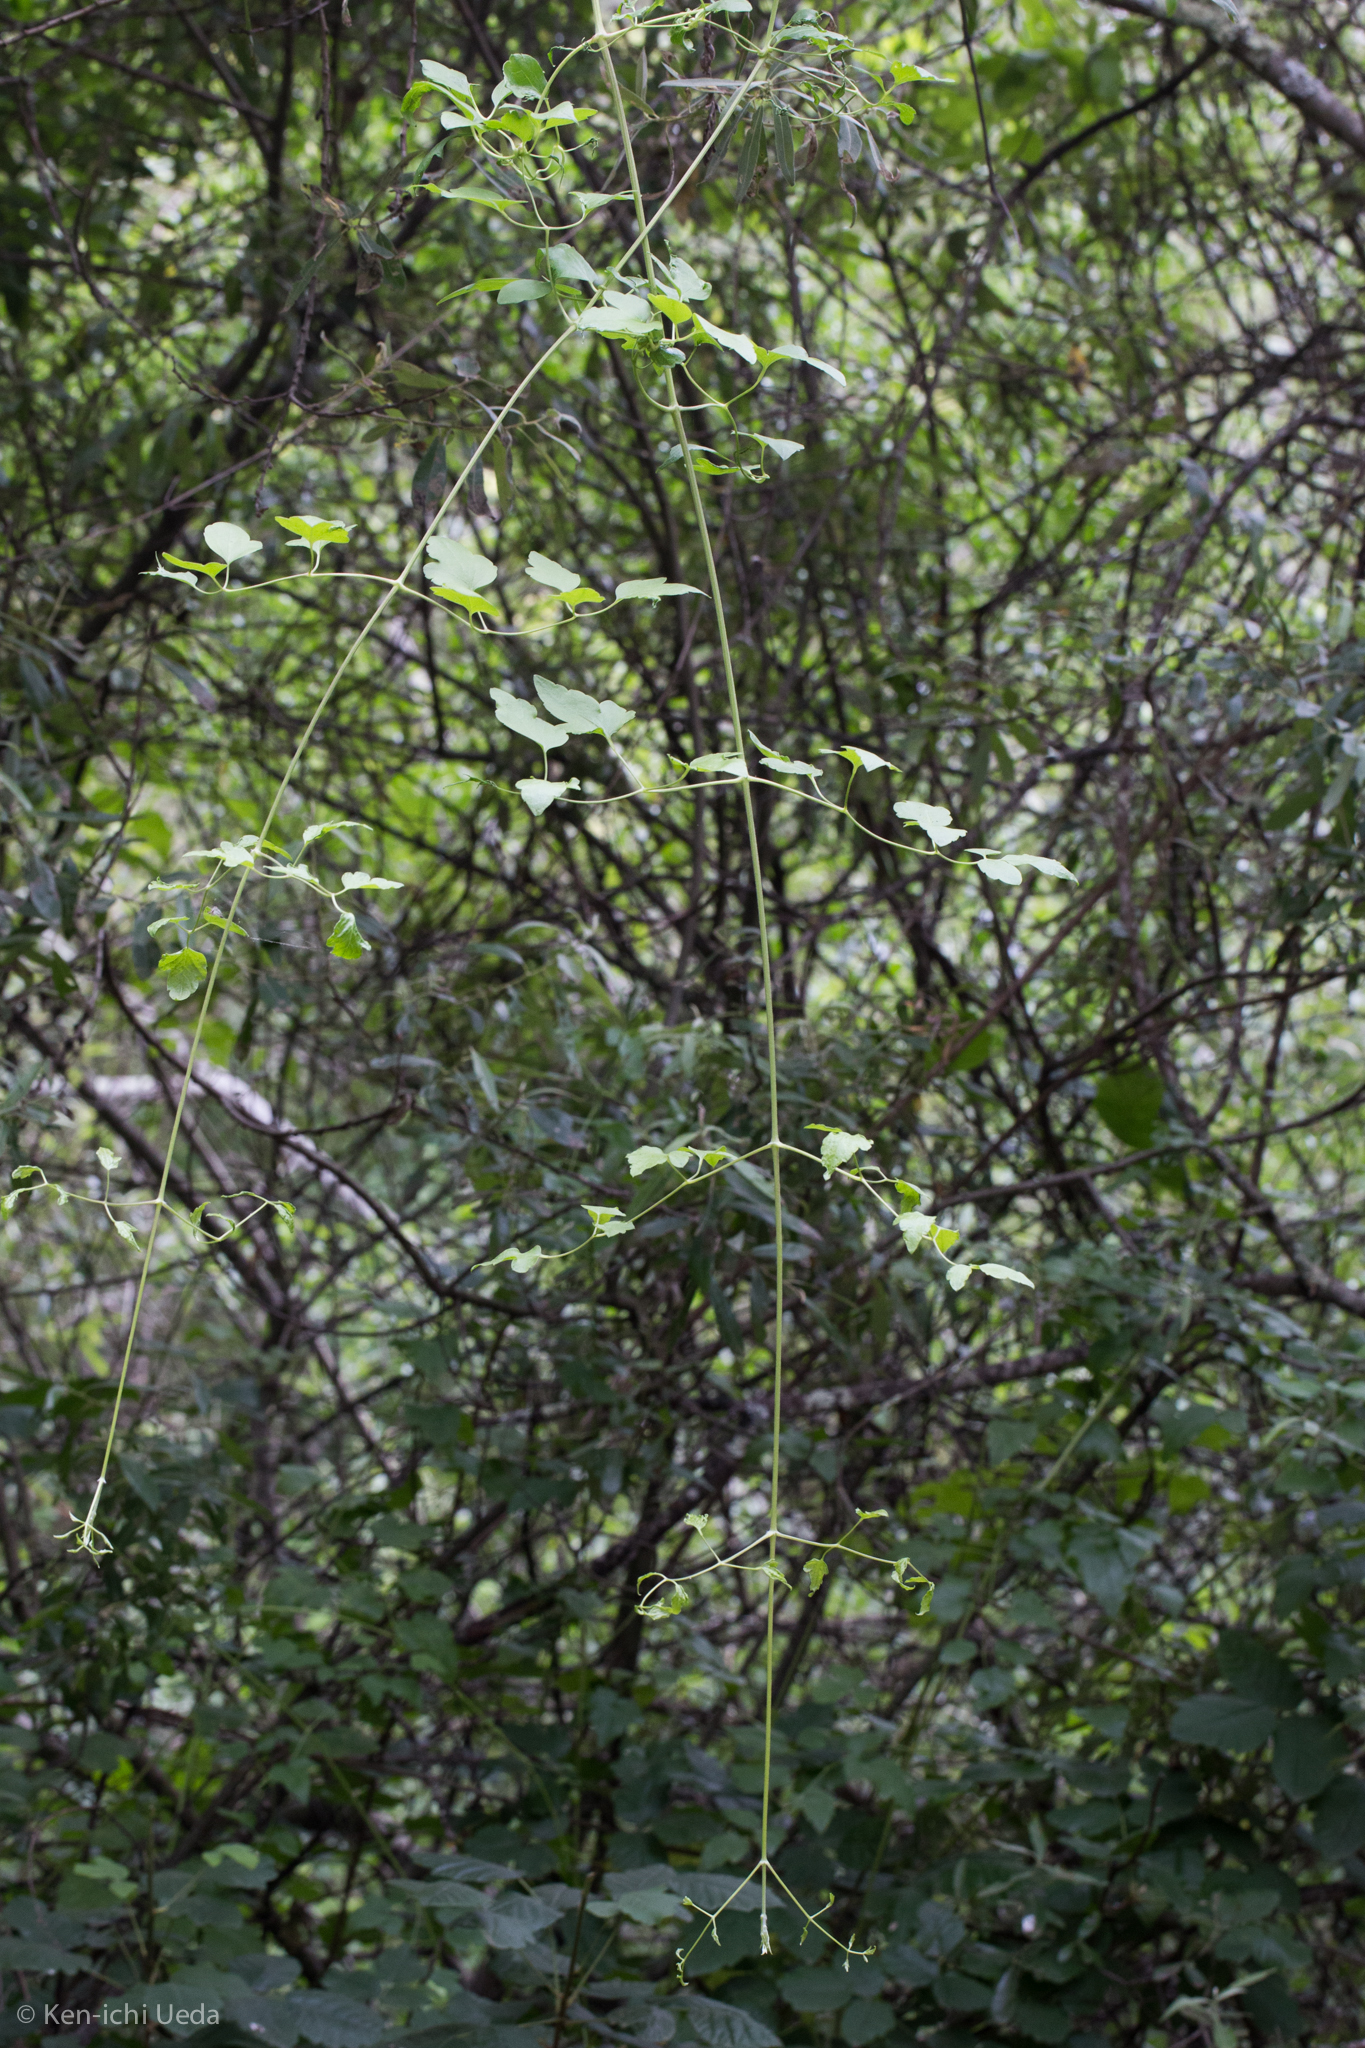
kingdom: Plantae
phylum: Tracheophyta
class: Magnoliopsida
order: Ranunculales
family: Ranunculaceae
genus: Clematis
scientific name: Clematis ligusticifolia
